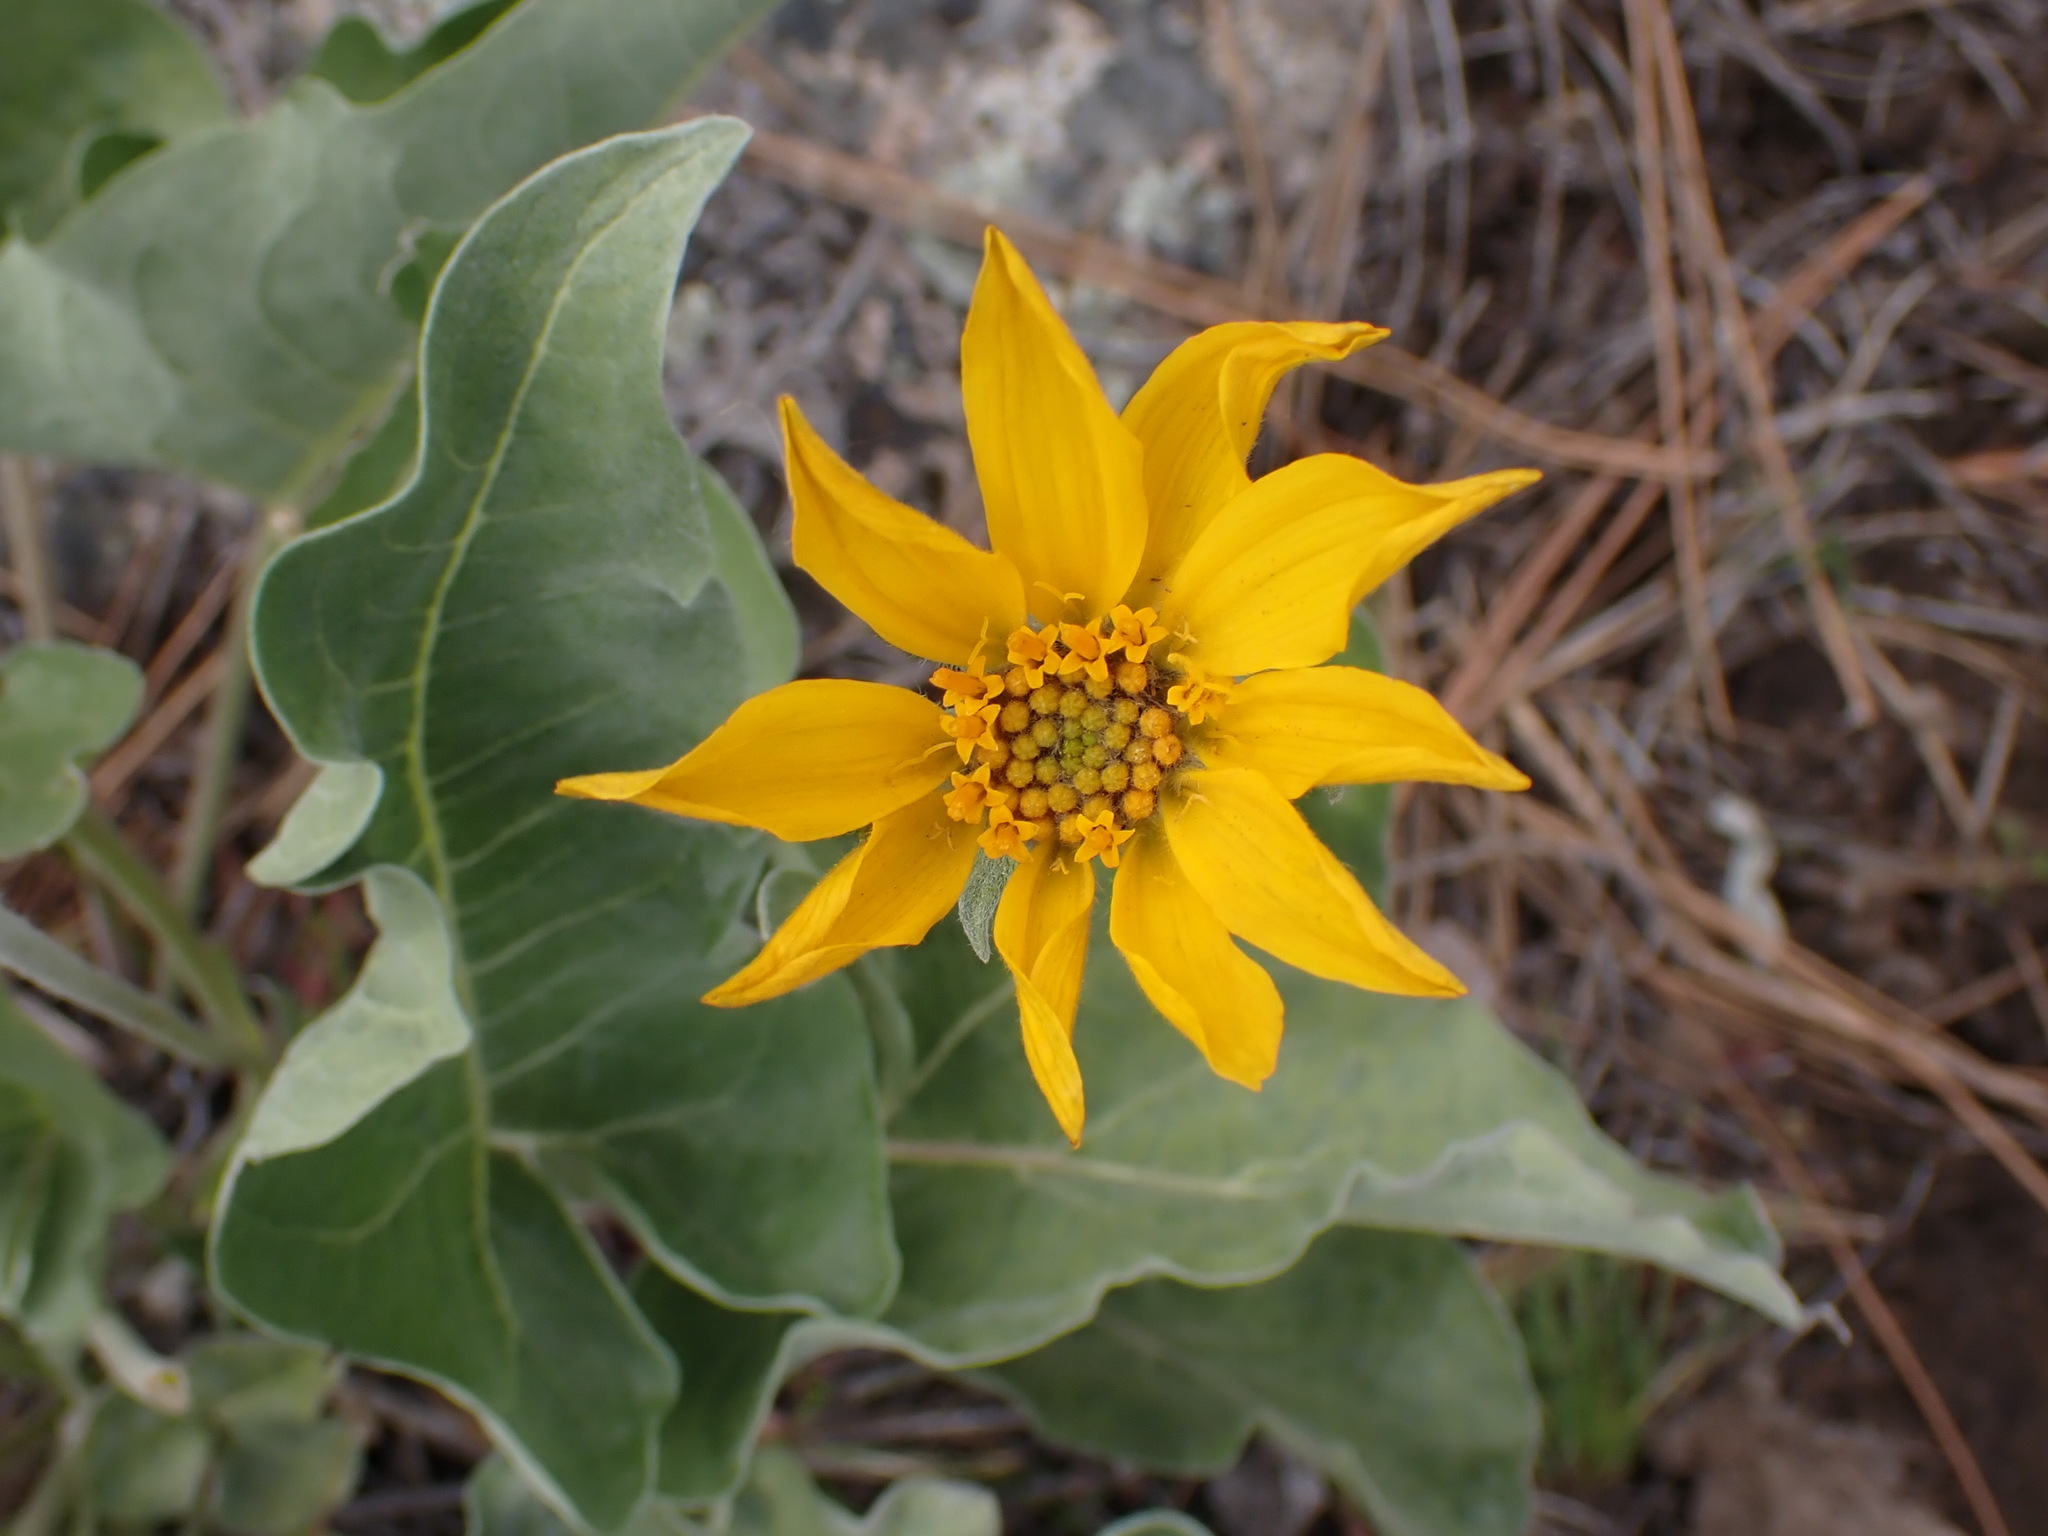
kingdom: Plantae
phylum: Tracheophyta
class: Magnoliopsida
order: Asterales
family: Asteraceae
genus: Wyethia
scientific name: Wyethia sagittata
